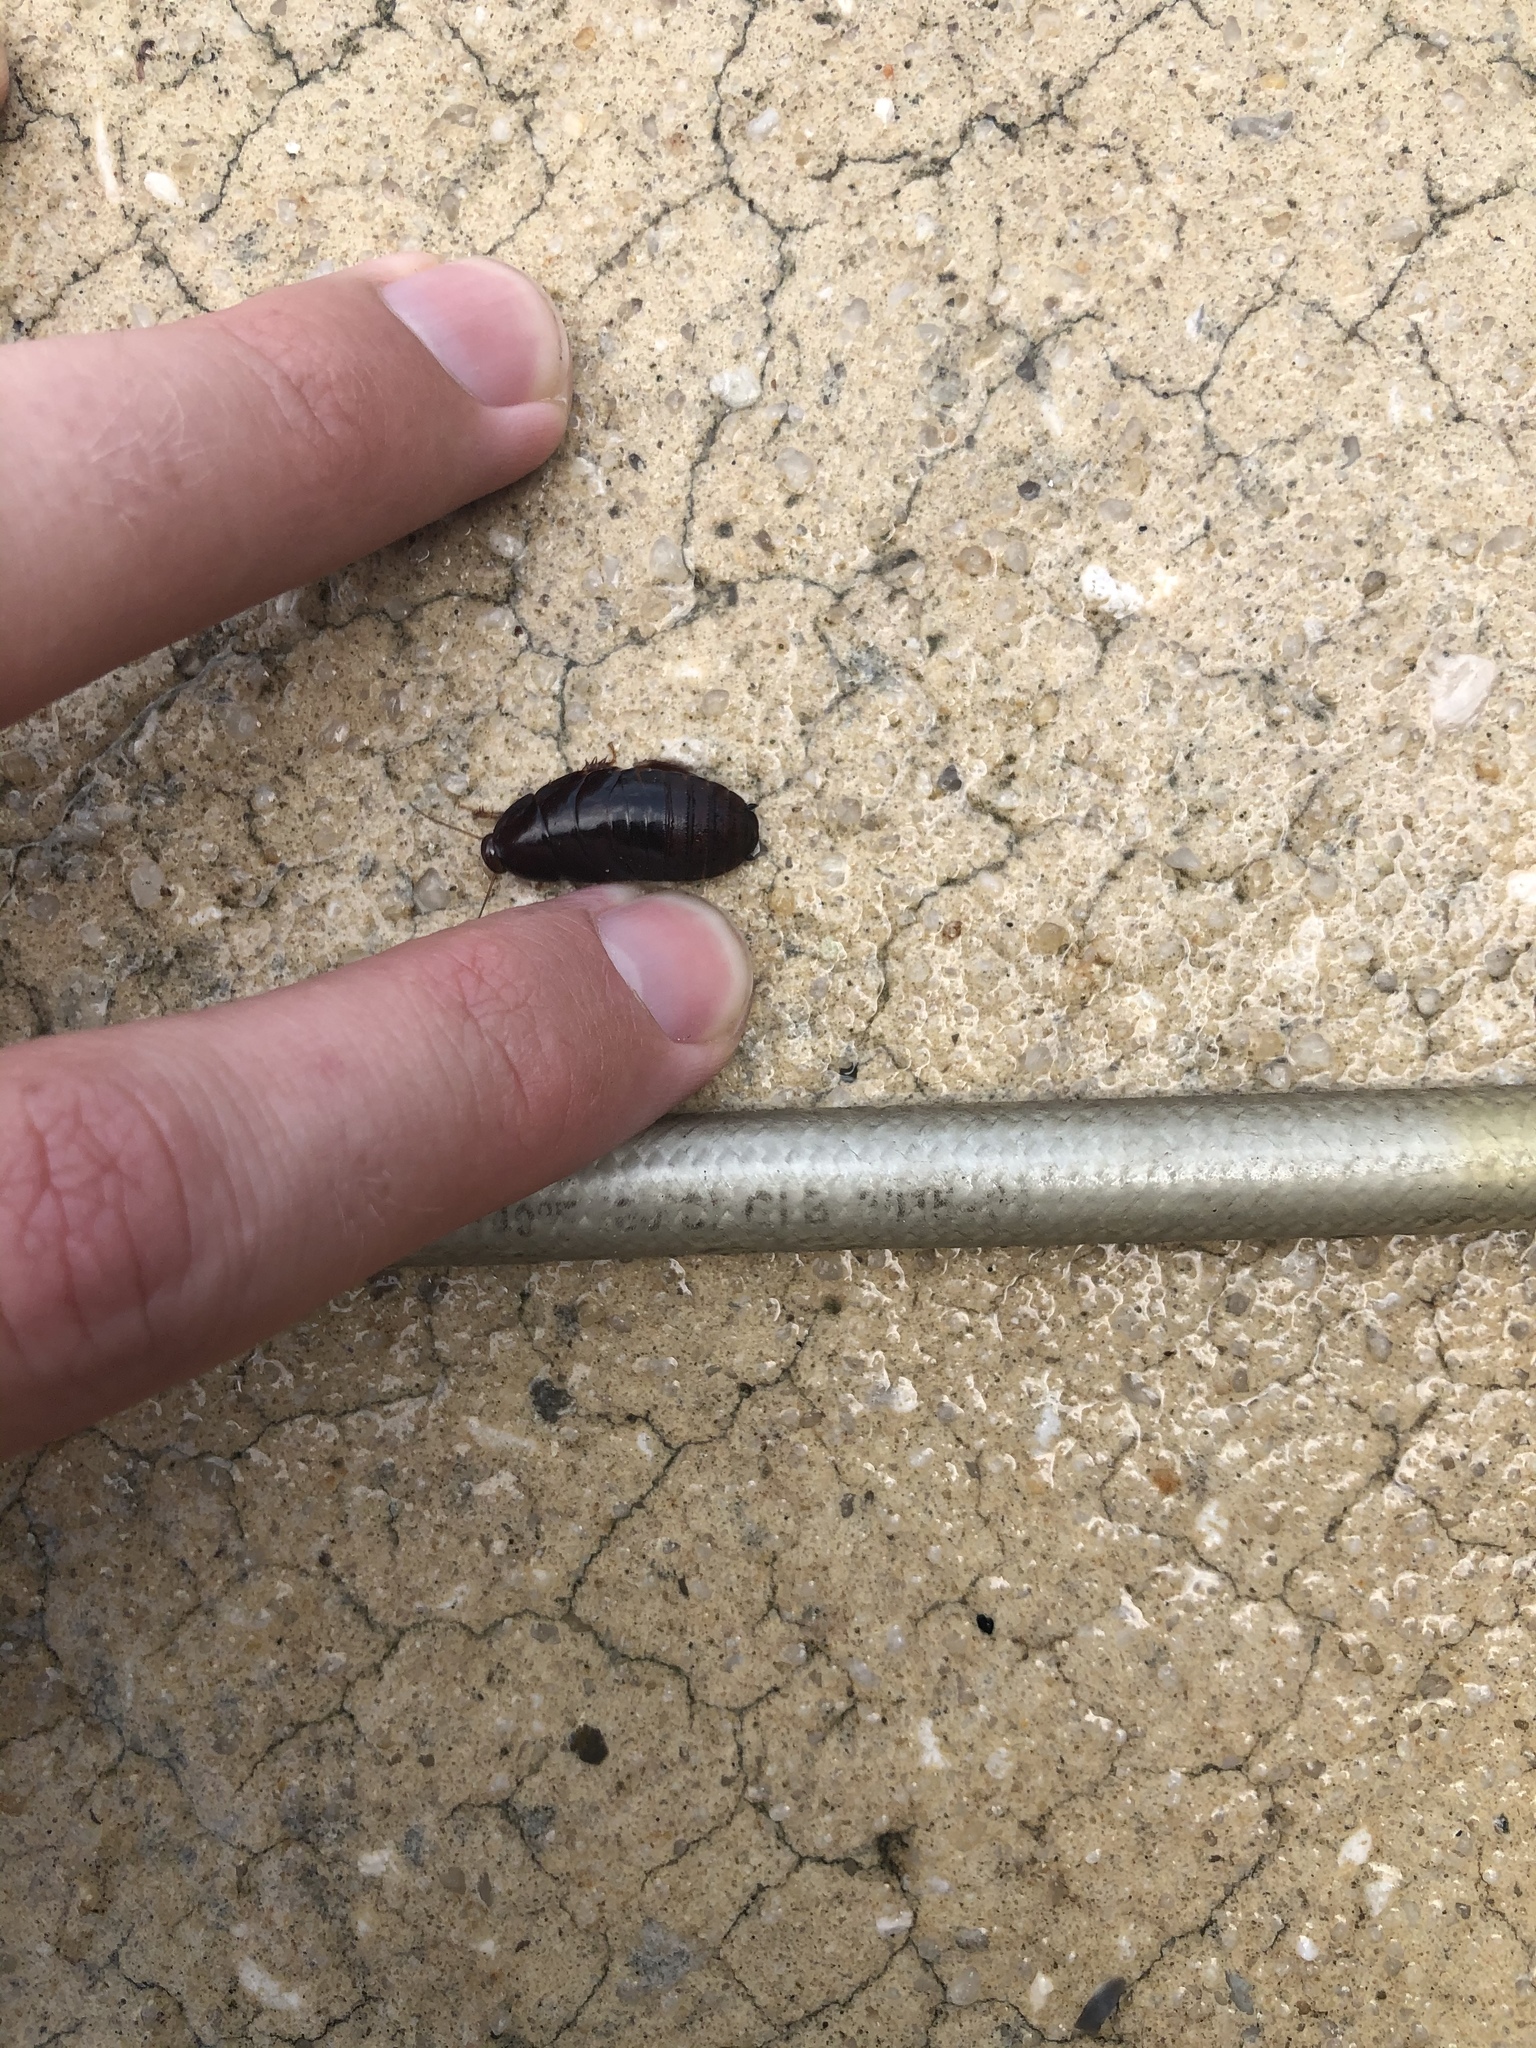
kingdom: Animalia
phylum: Arthropoda
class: Insecta
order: Blattodea
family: Blaberidae
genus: Pycnoscelus
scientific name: Pycnoscelus surinamensis
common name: Surinam cockroach
